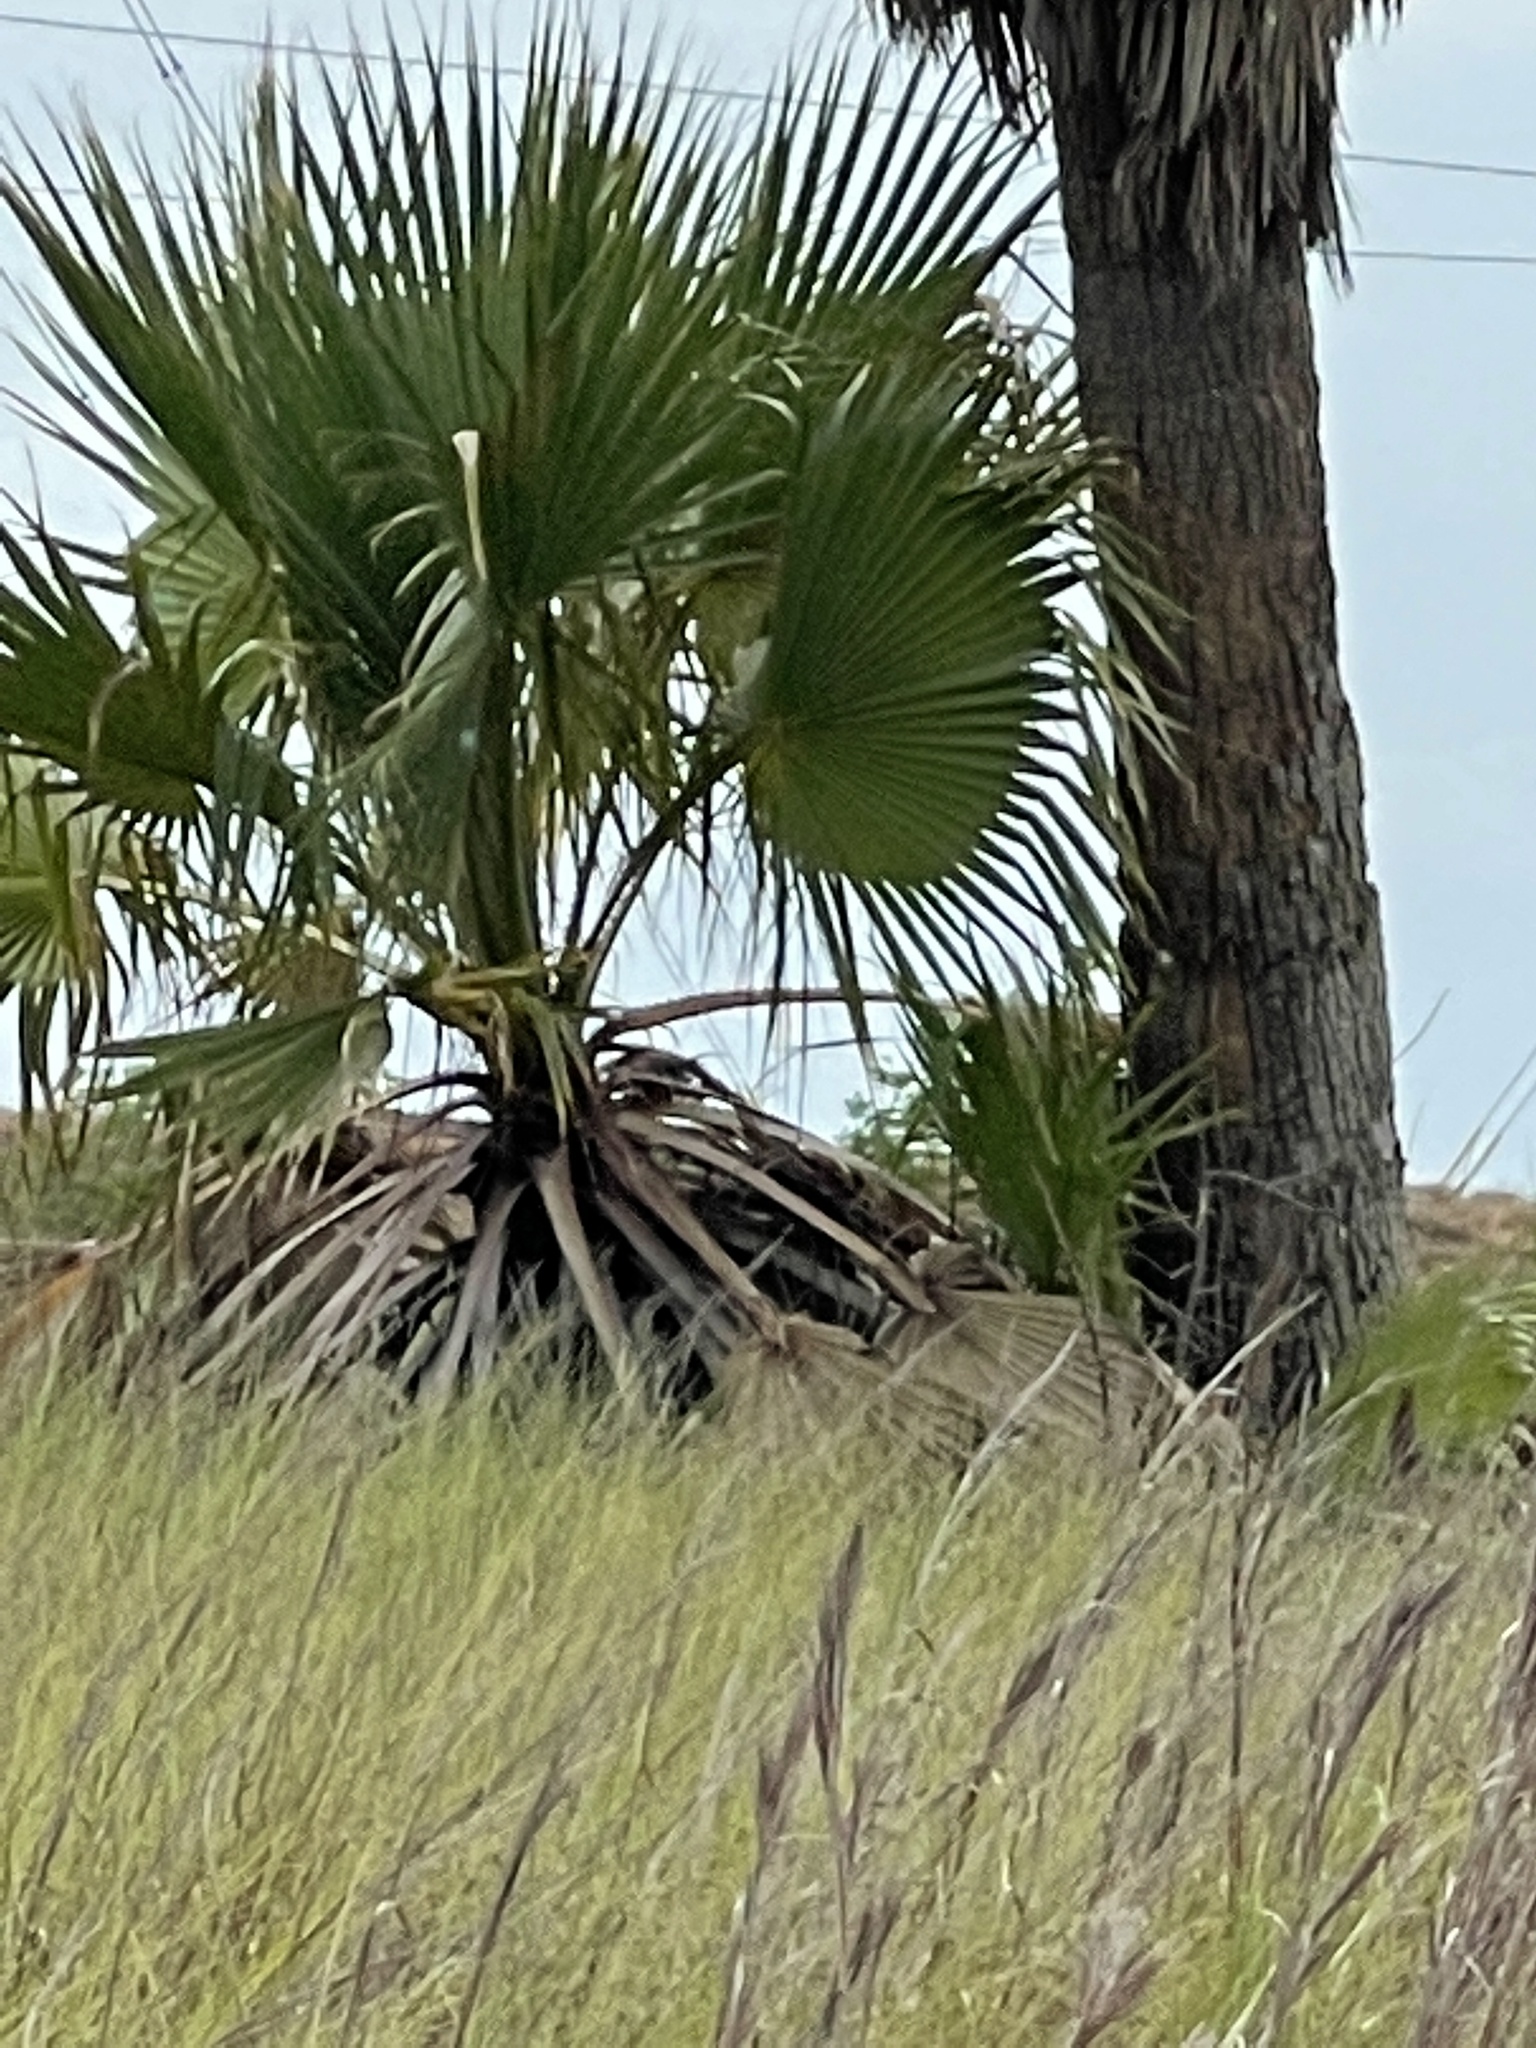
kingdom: Plantae
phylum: Tracheophyta
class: Liliopsida
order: Arecales
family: Arecaceae
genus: Washingtonia
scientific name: Washingtonia robusta
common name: Mexican fan palm
